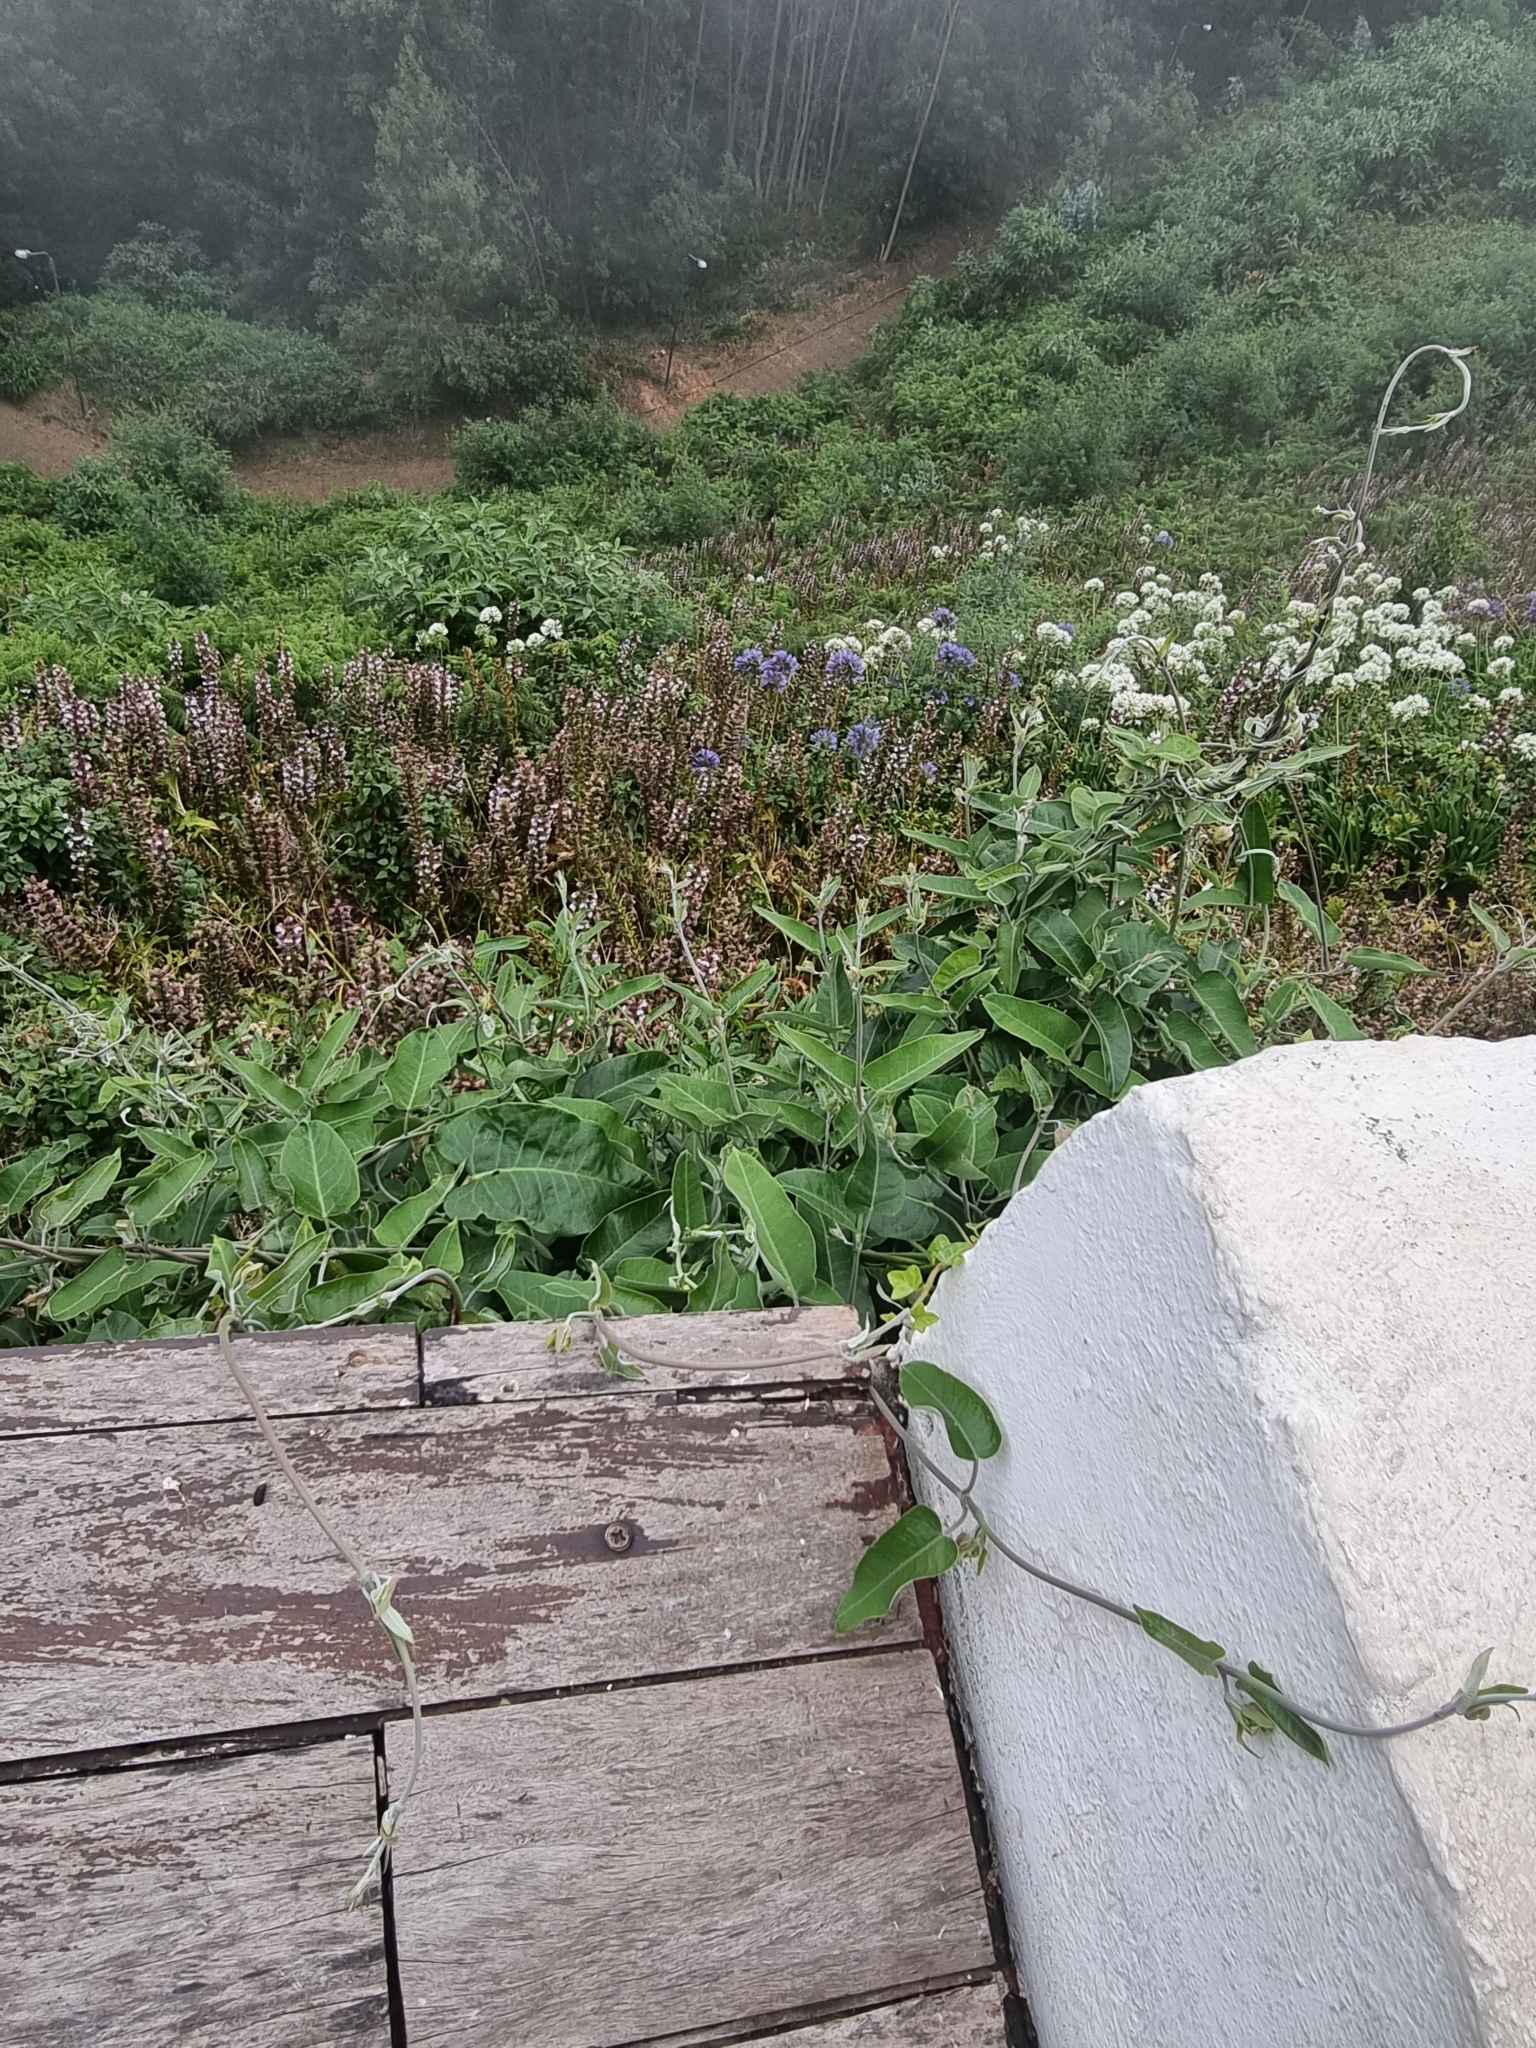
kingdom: Plantae
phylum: Tracheophyta
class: Magnoliopsida
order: Gentianales
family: Apocynaceae
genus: Araujia
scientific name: Araujia sericifera
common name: White bladderflower
